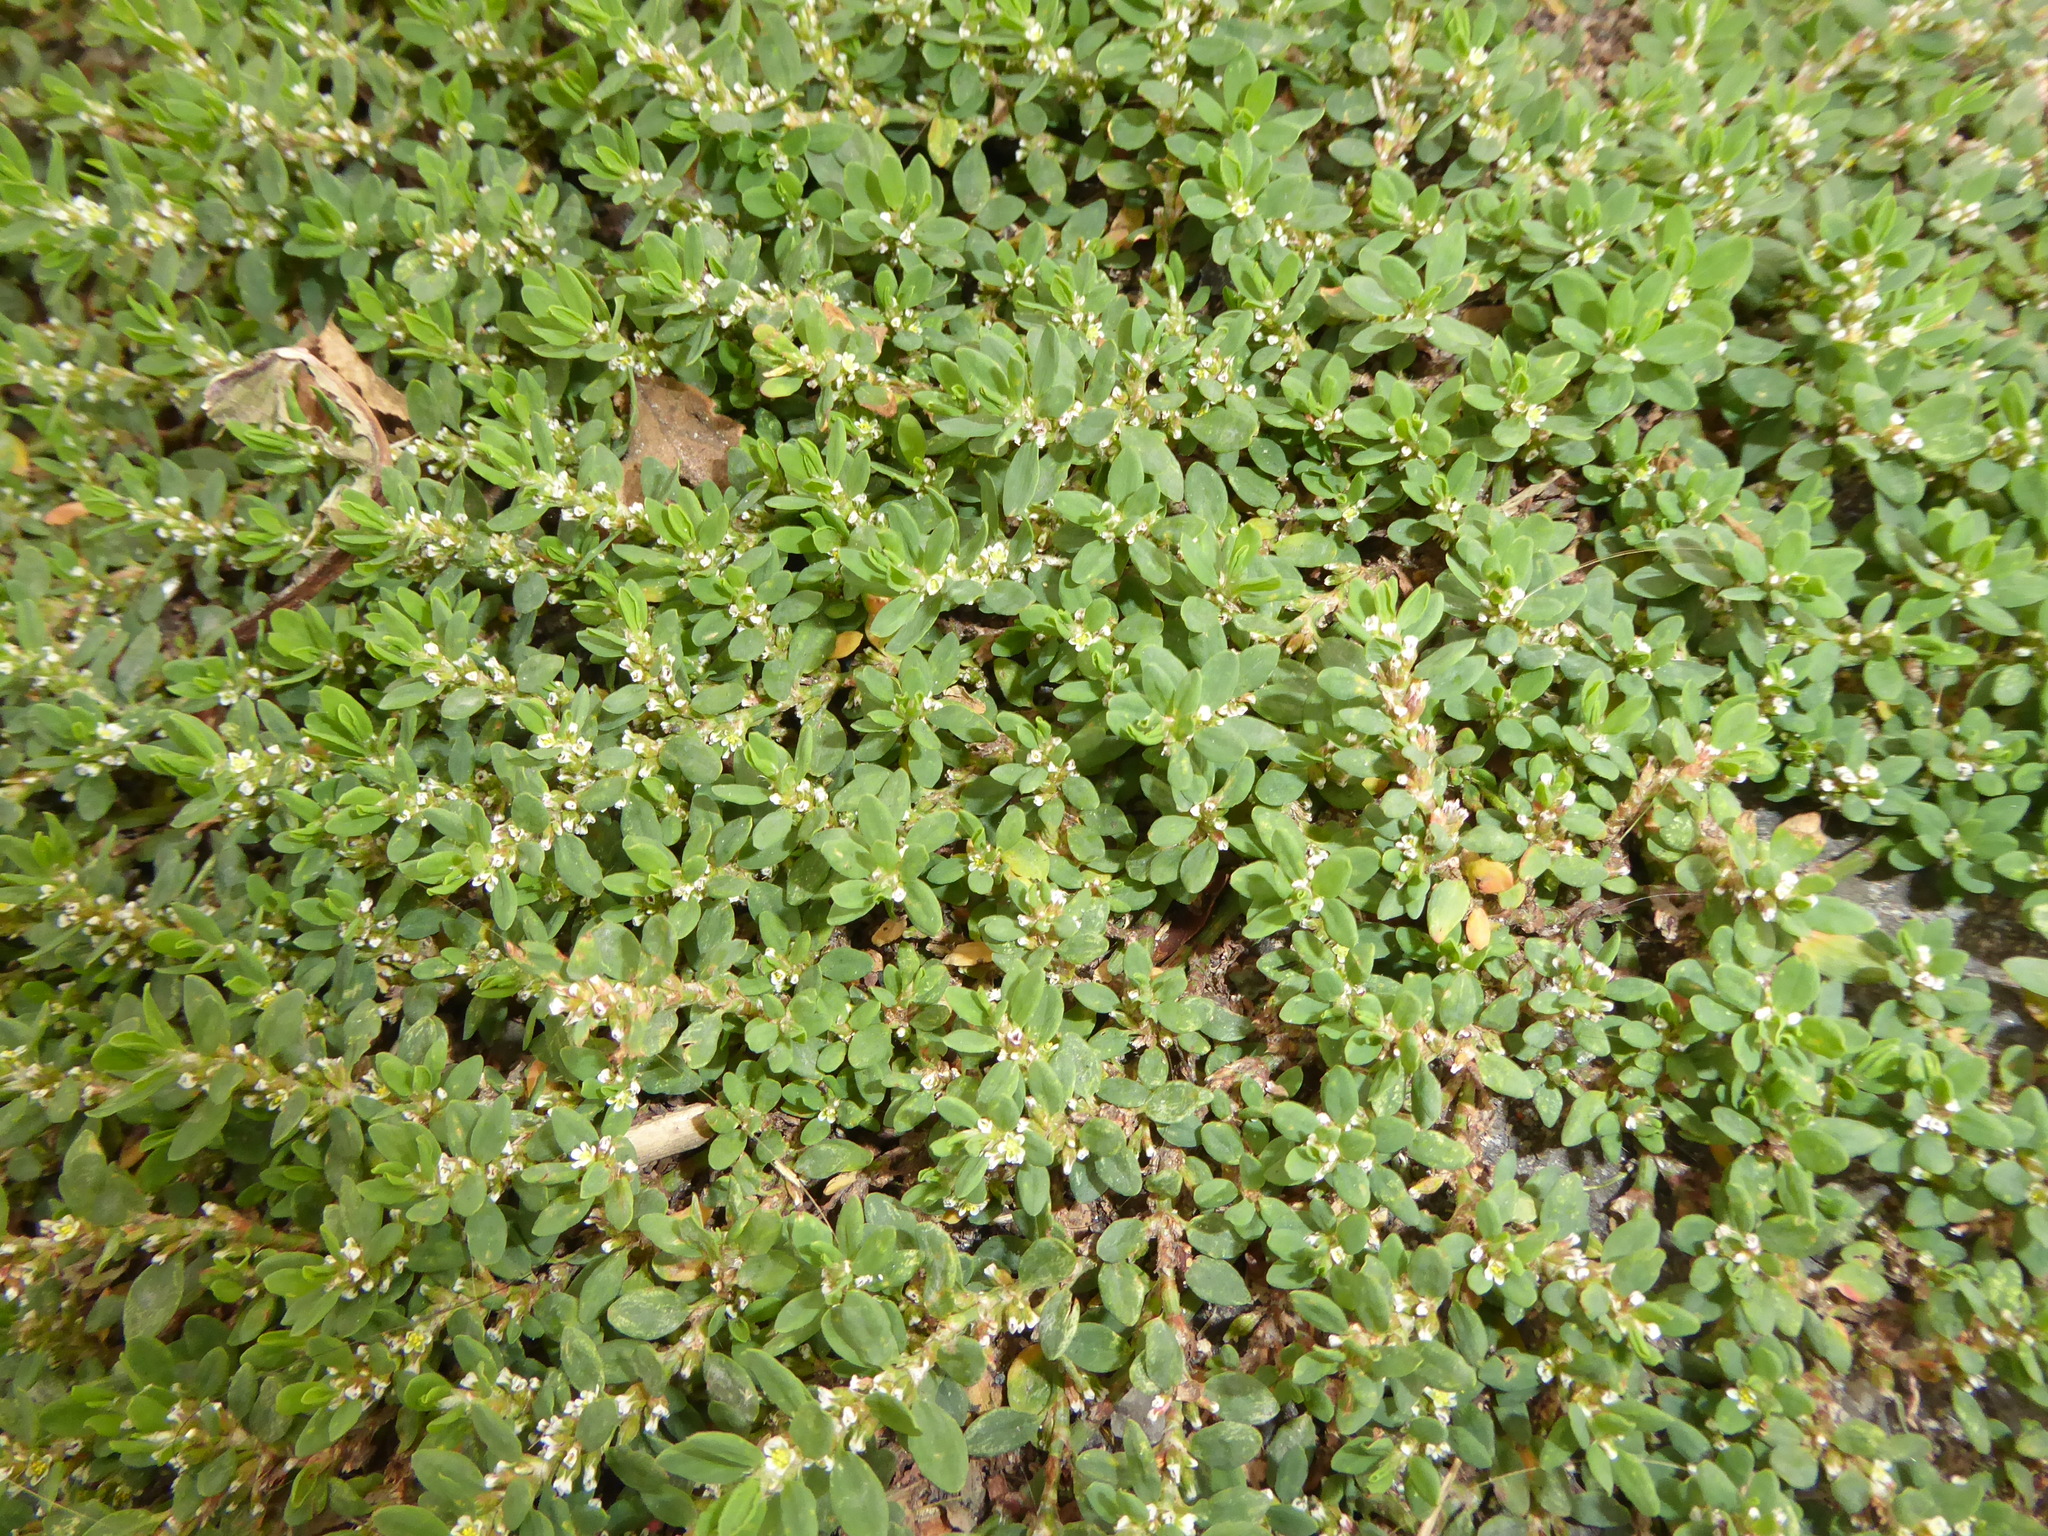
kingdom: Plantae
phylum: Tracheophyta
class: Magnoliopsida
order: Caryophyllales
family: Polygonaceae
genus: Polygonum
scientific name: Polygonum
